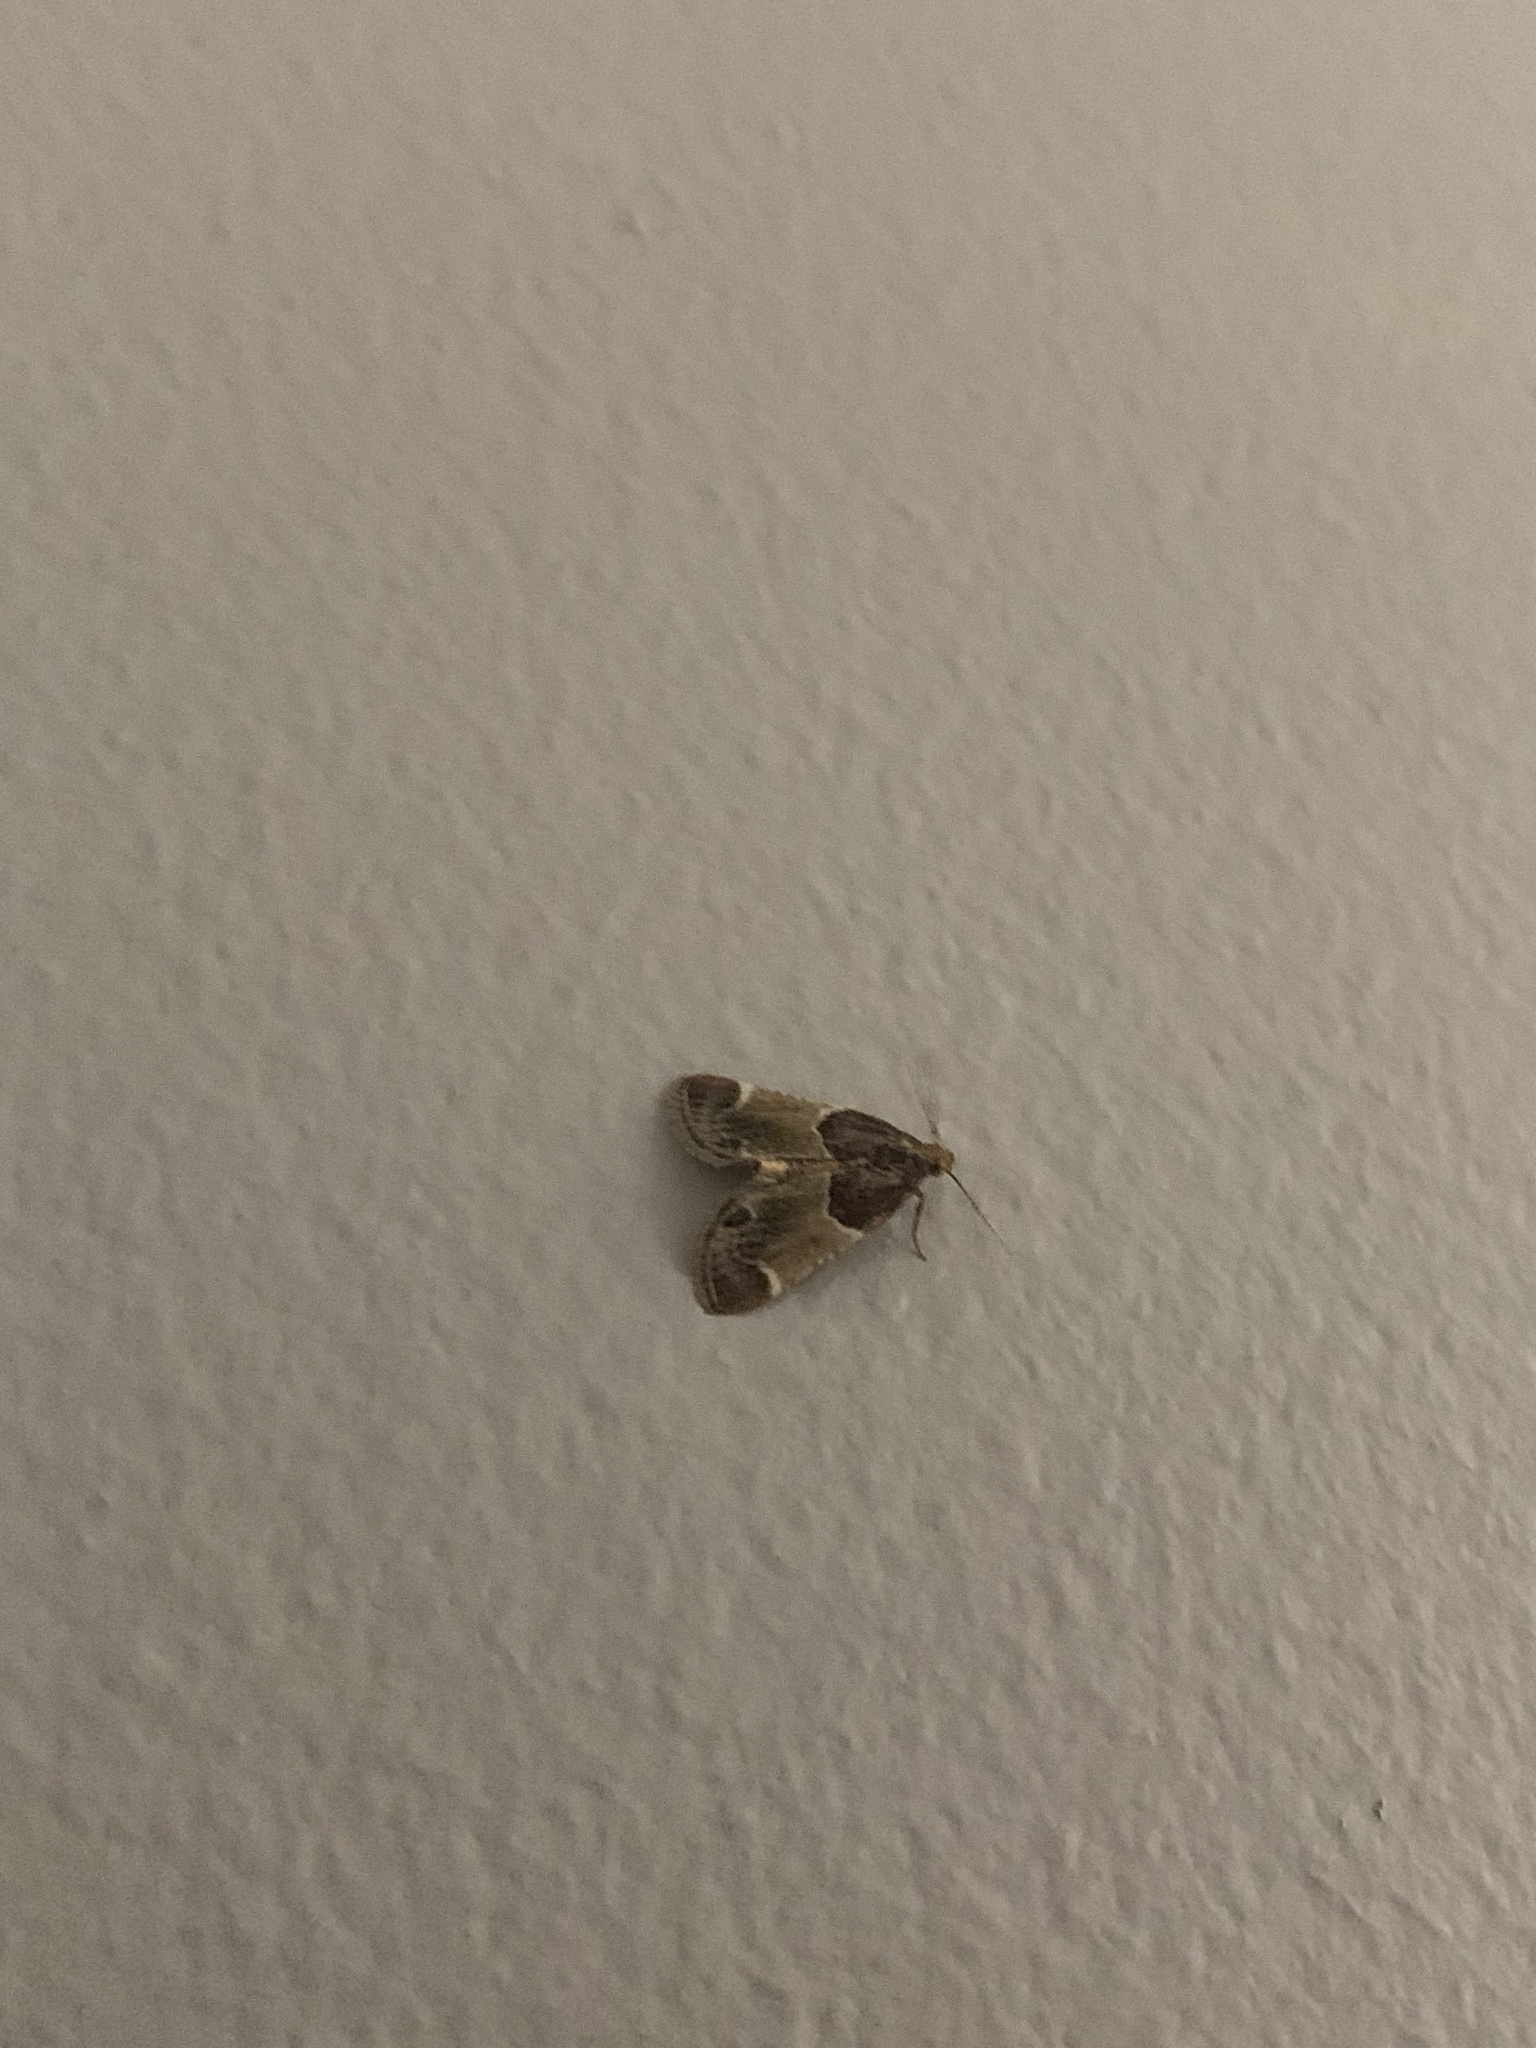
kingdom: Animalia
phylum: Arthropoda
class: Insecta
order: Lepidoptera
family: Pyralidae
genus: Pyralis
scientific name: Pyralis farinalis
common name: Meal moth
